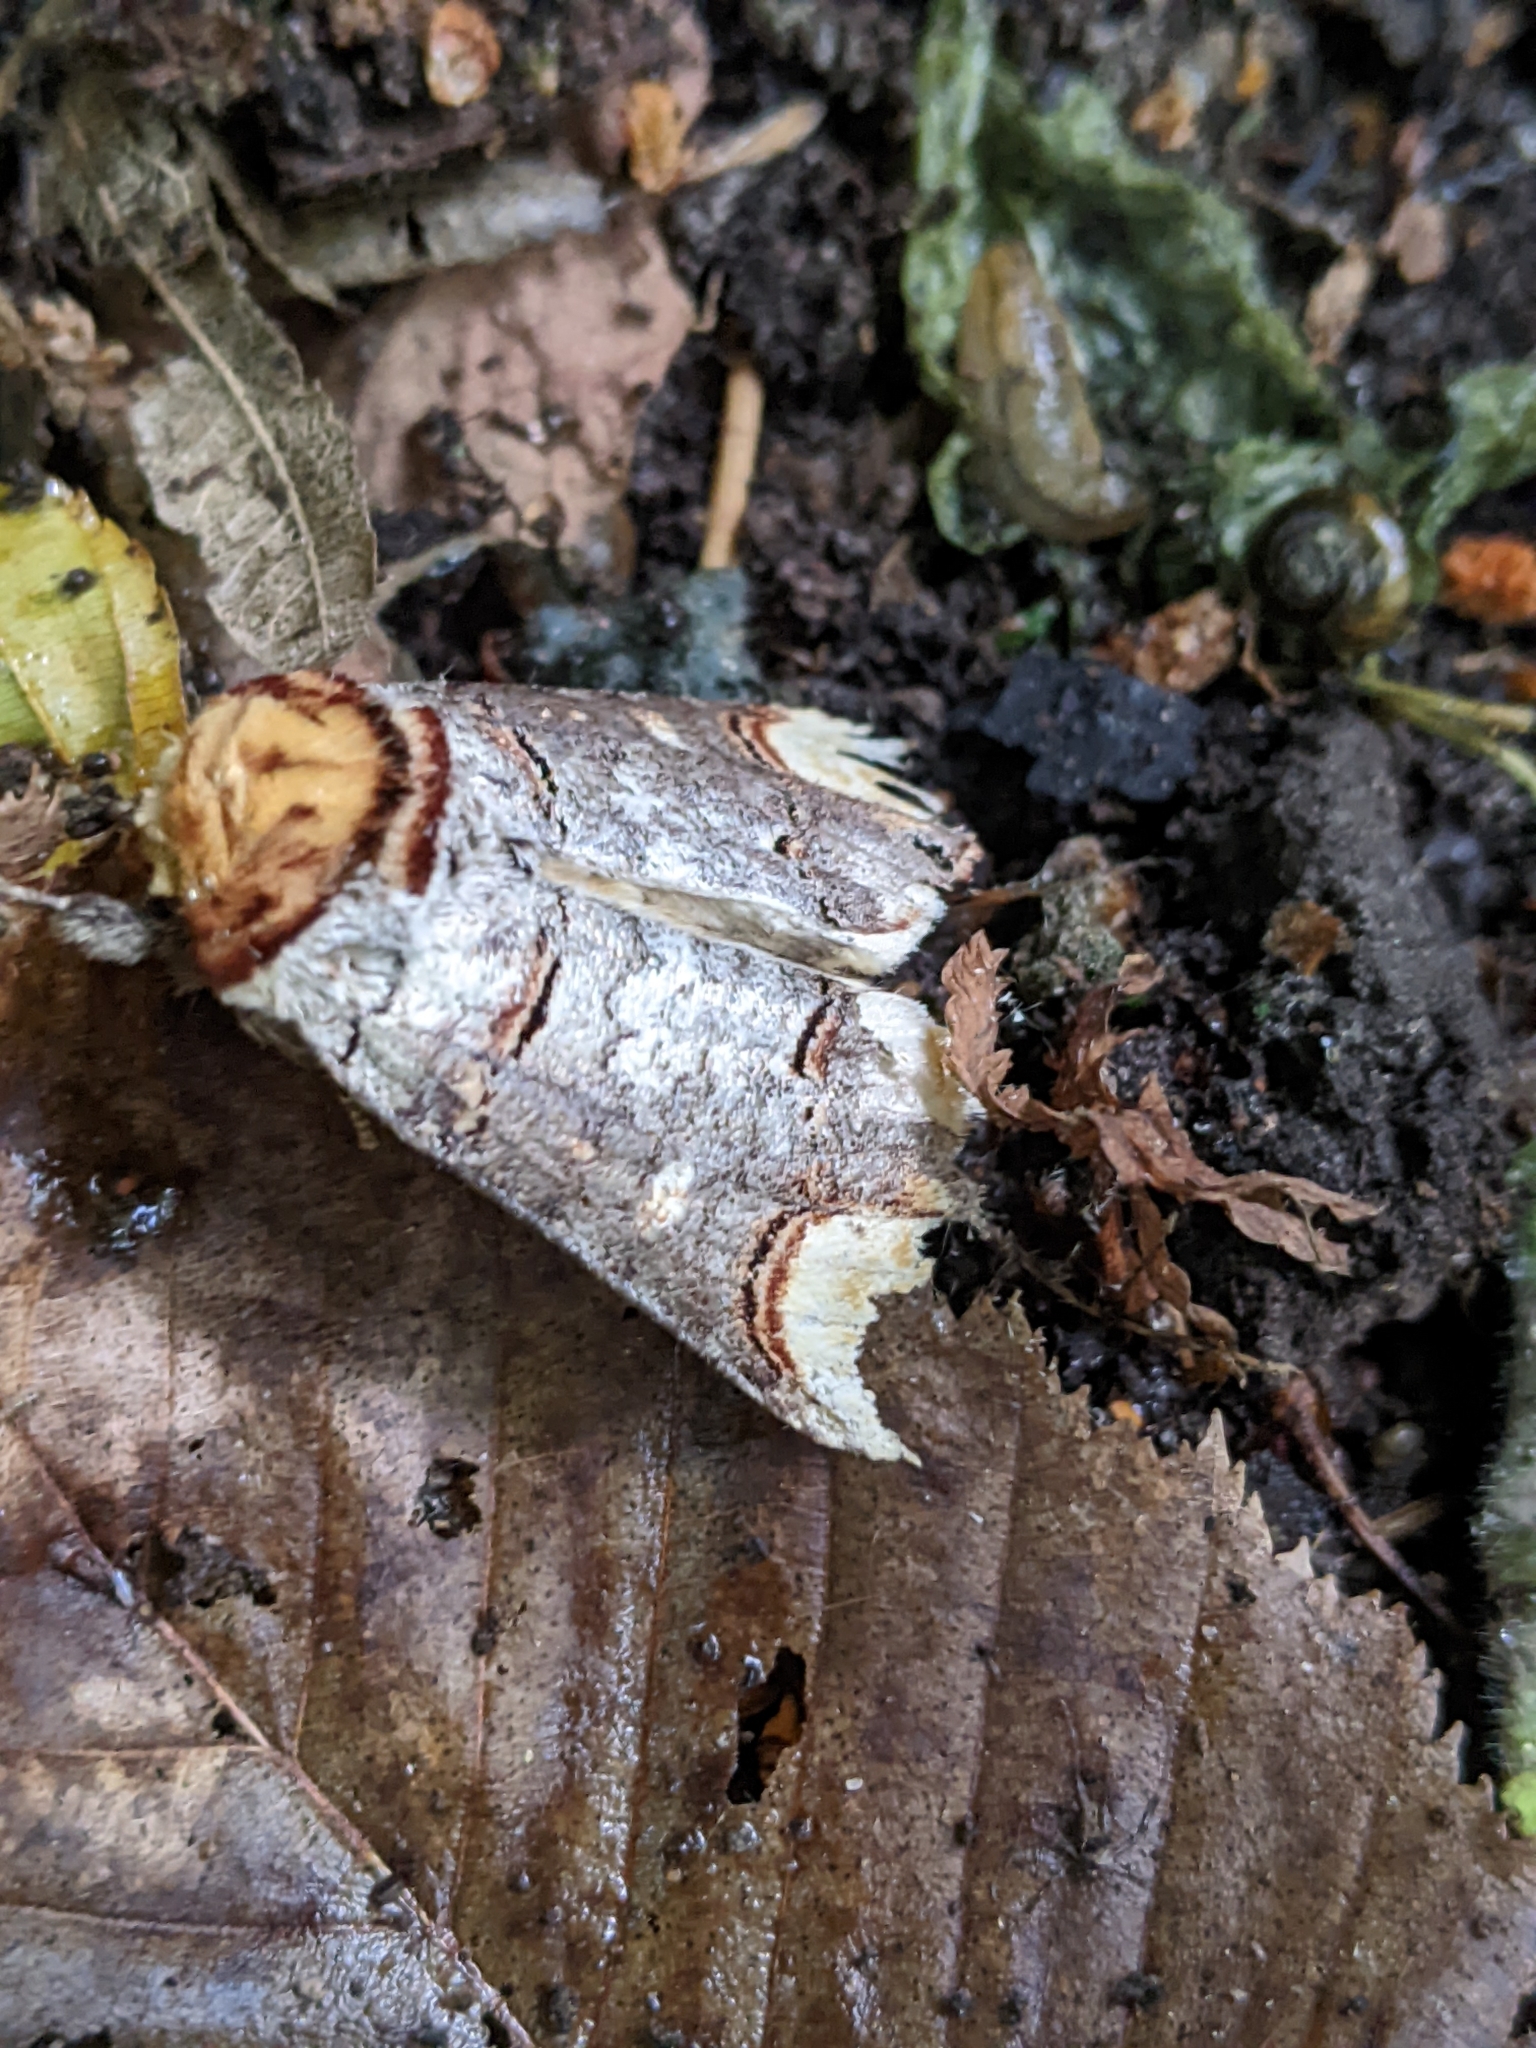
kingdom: Animalia
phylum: Arthropoda
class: Insecta
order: Lepidoptera
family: Notodontidae
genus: Phalera
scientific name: Phalera bucephala
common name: Buff-tip
